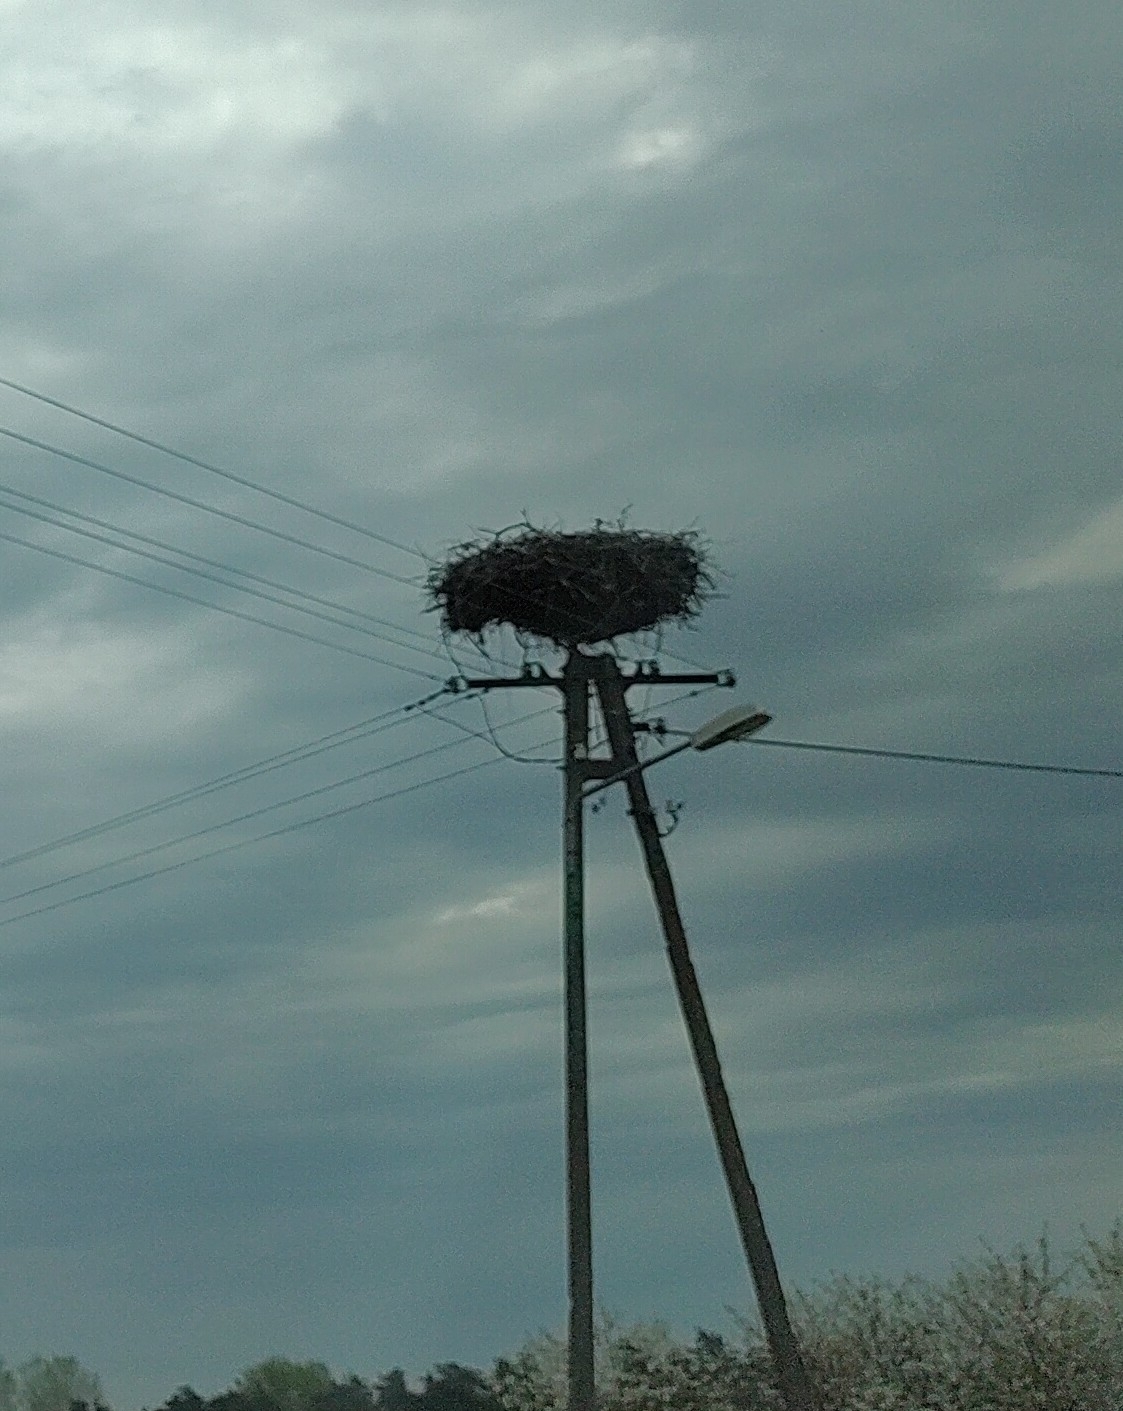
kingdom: Animalia
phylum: Chordata
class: Aves
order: Ciconiiformes
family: Ciconiidae
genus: Ciconia
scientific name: Ciconia ciconia
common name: White stork
